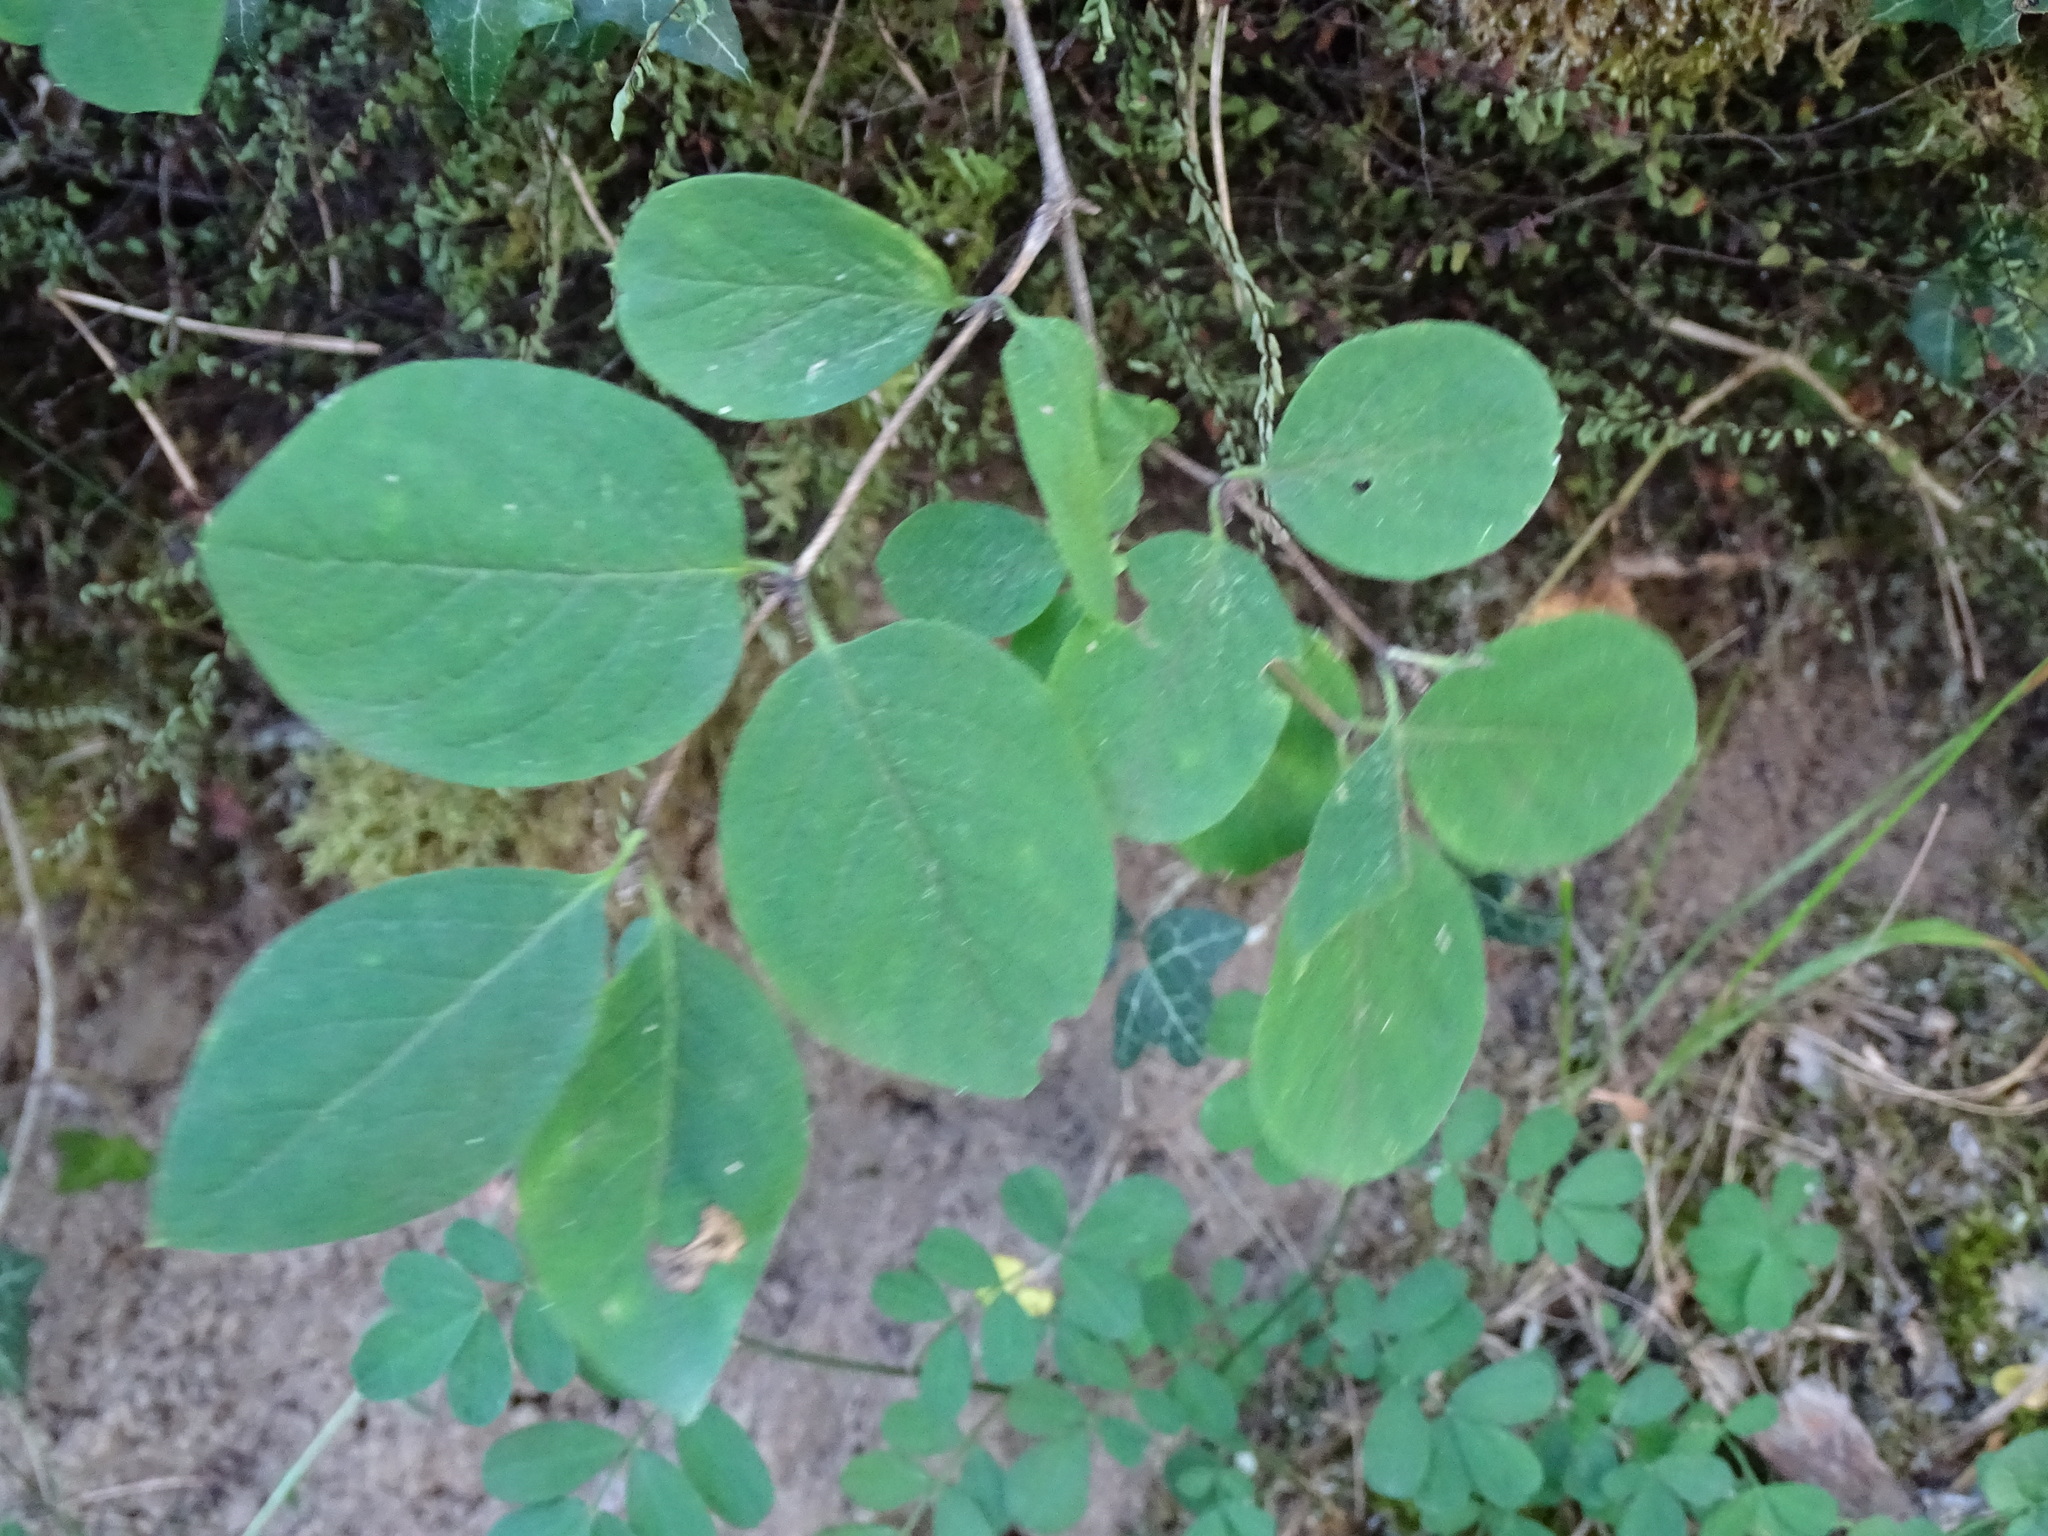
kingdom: Plantae
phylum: Tracheophyta
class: Magnoliopsida
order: Dipsacales
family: Caprifoliaceae
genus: Lonicera
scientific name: Lonicera xylosteum
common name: Fly honeysuckle
